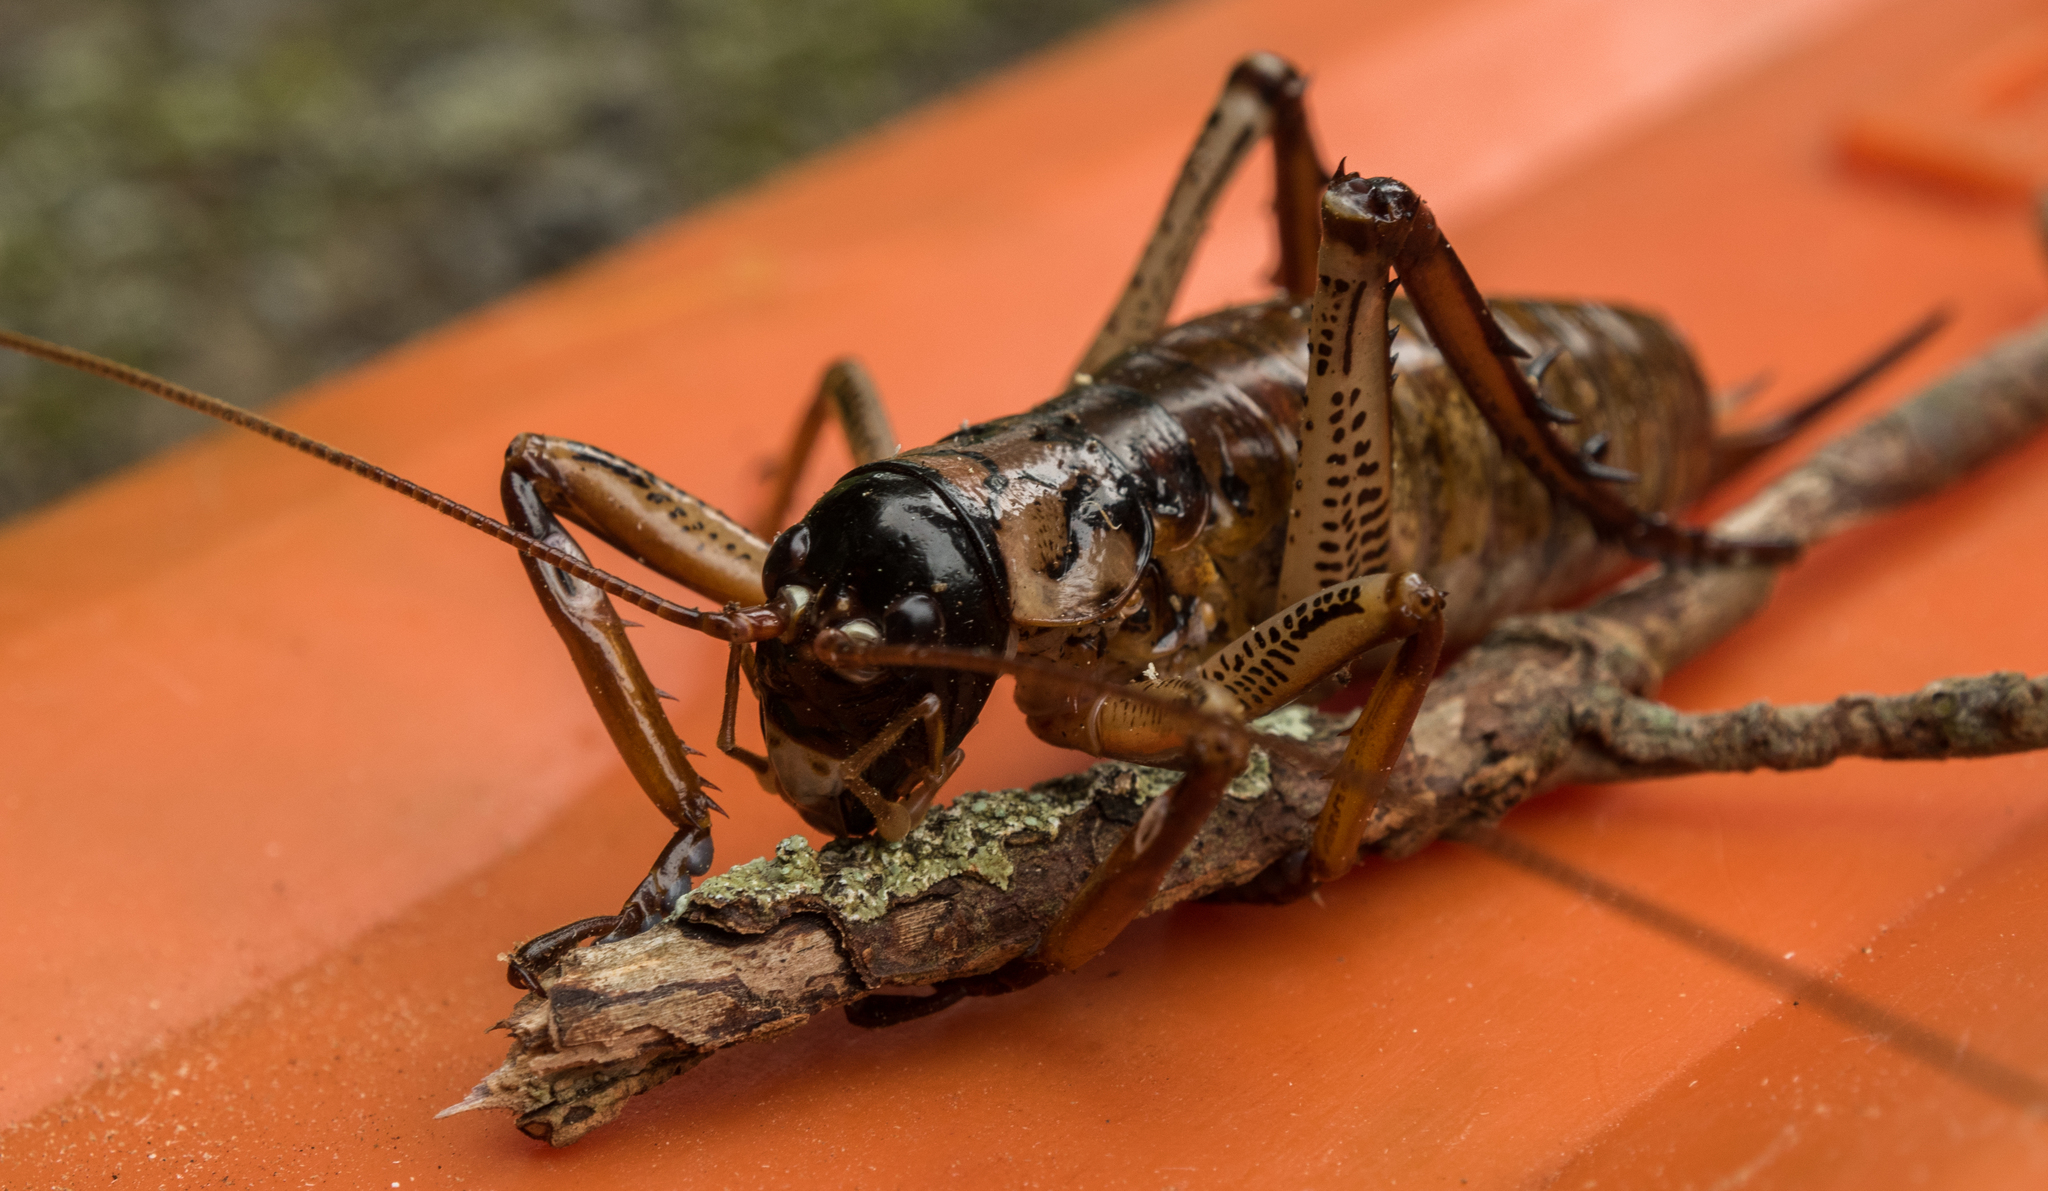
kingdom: Animalia
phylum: Arthropoda
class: Insecta
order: Orthoptera
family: Anostostomatidae
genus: Hemideina
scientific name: Hemideina thoracica
